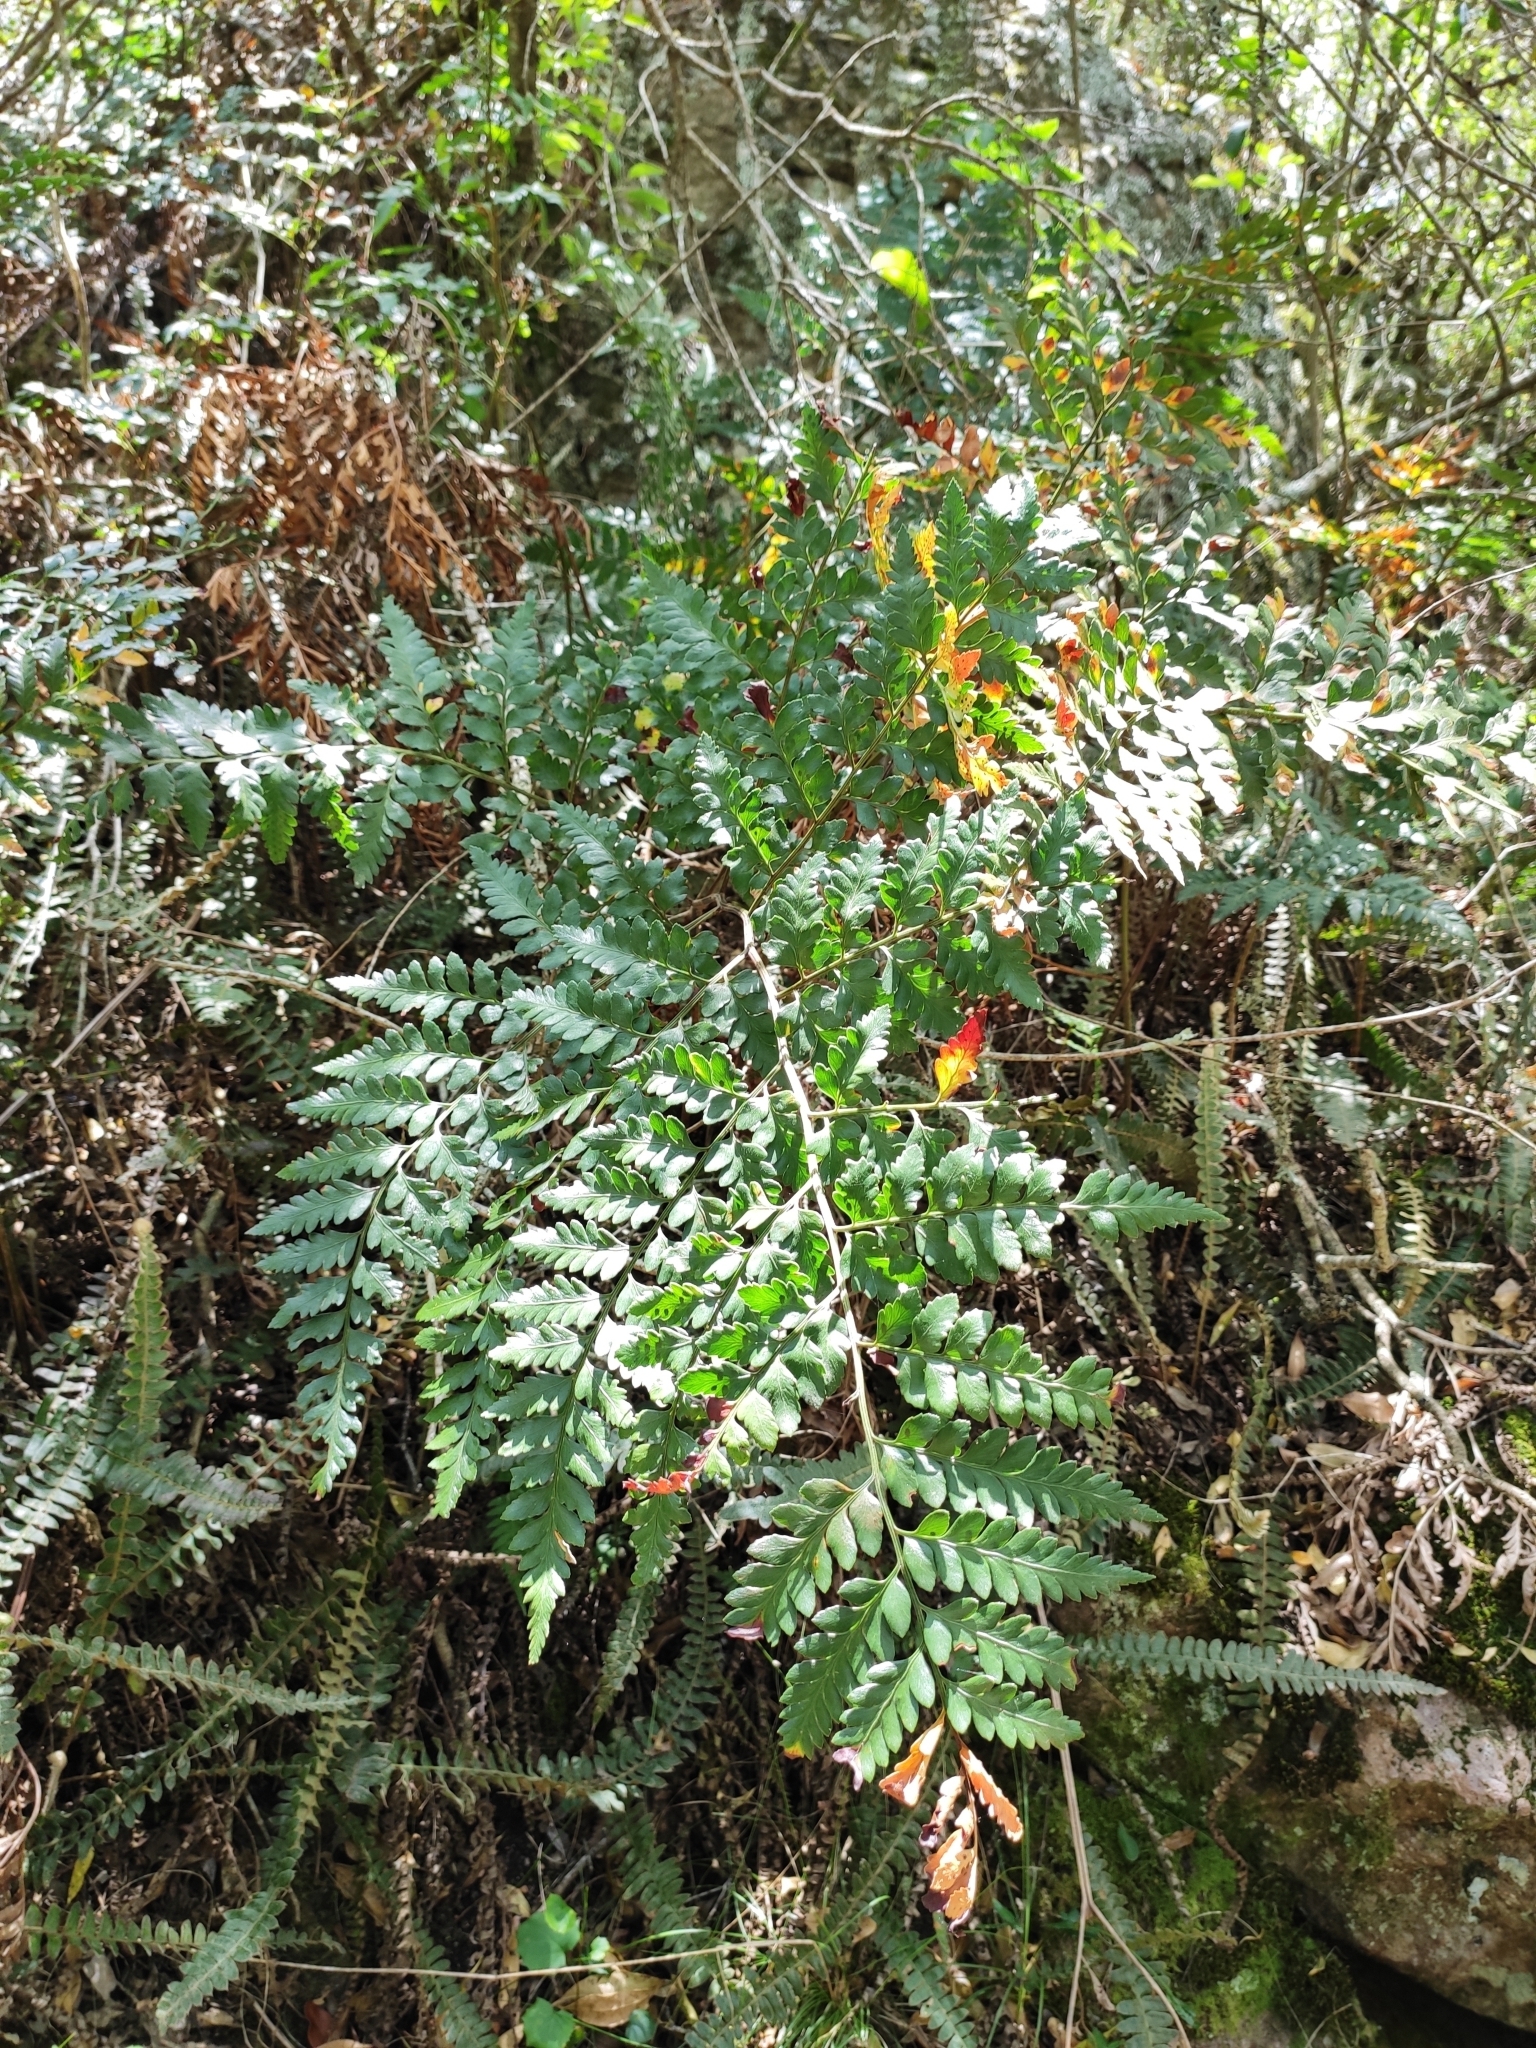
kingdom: Plantae
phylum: Tracheophyta
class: Polypodiopsida
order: Polypodiales
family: Dryopteridaceae
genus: Rumohra
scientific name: Rumohra adiantiformis
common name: Leather fern
